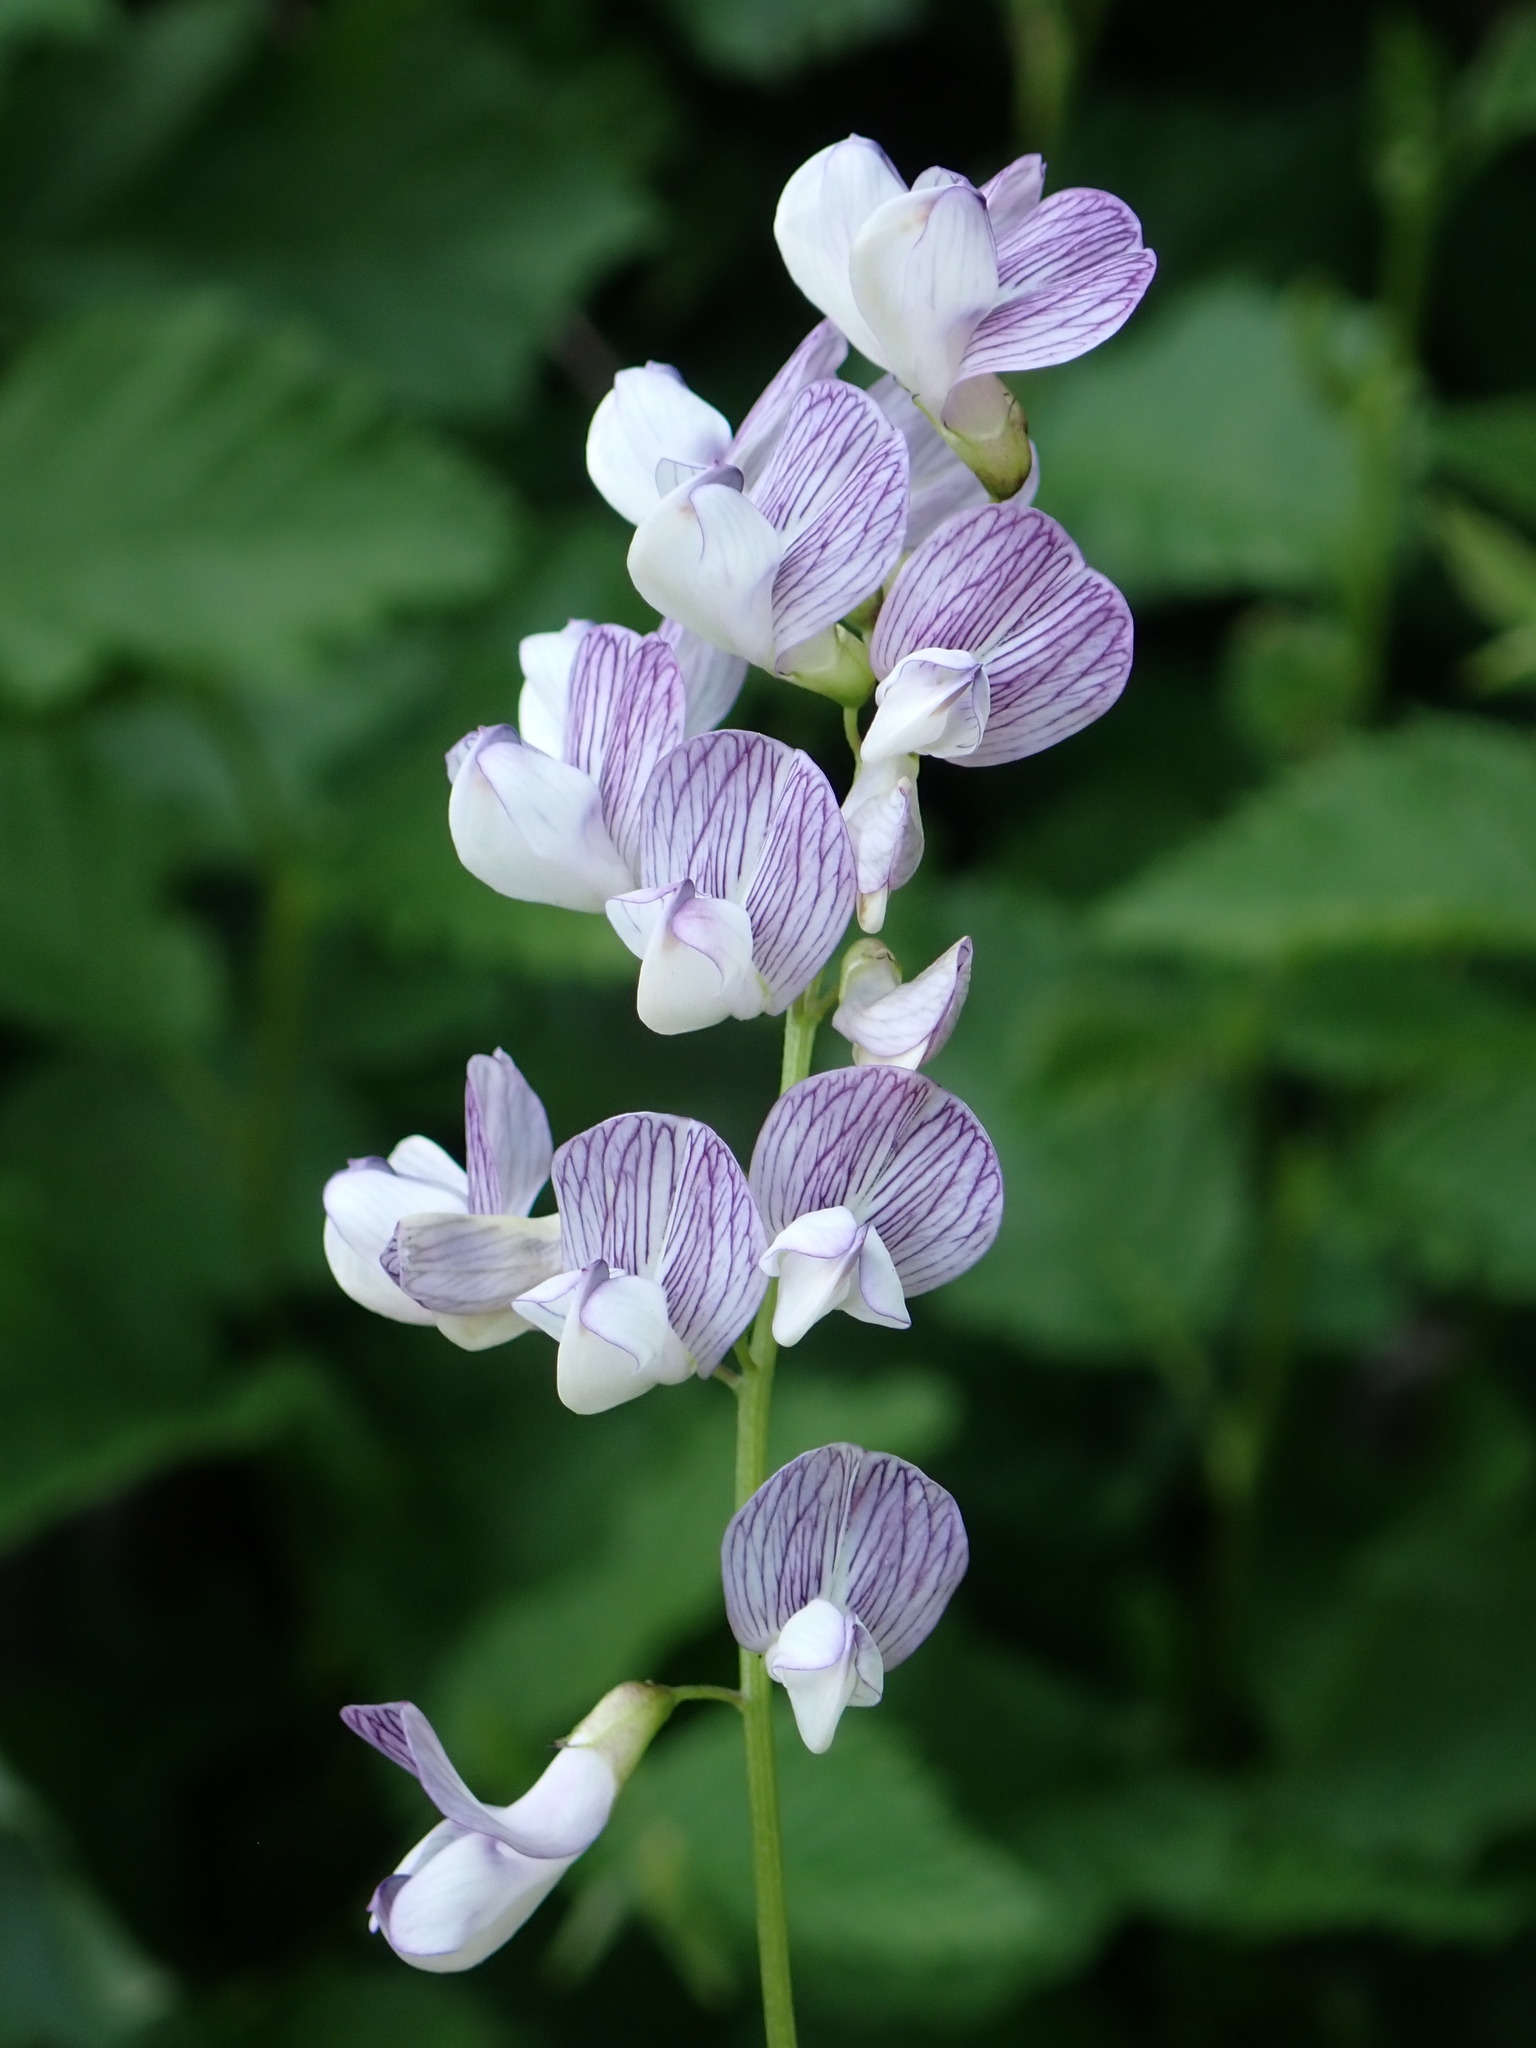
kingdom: Plantae
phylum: Tracheophyta
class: Magnoliopsida
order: Fabales
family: Fabaceae
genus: Vicia
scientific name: Vicia sylvatica
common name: Wood vetch
